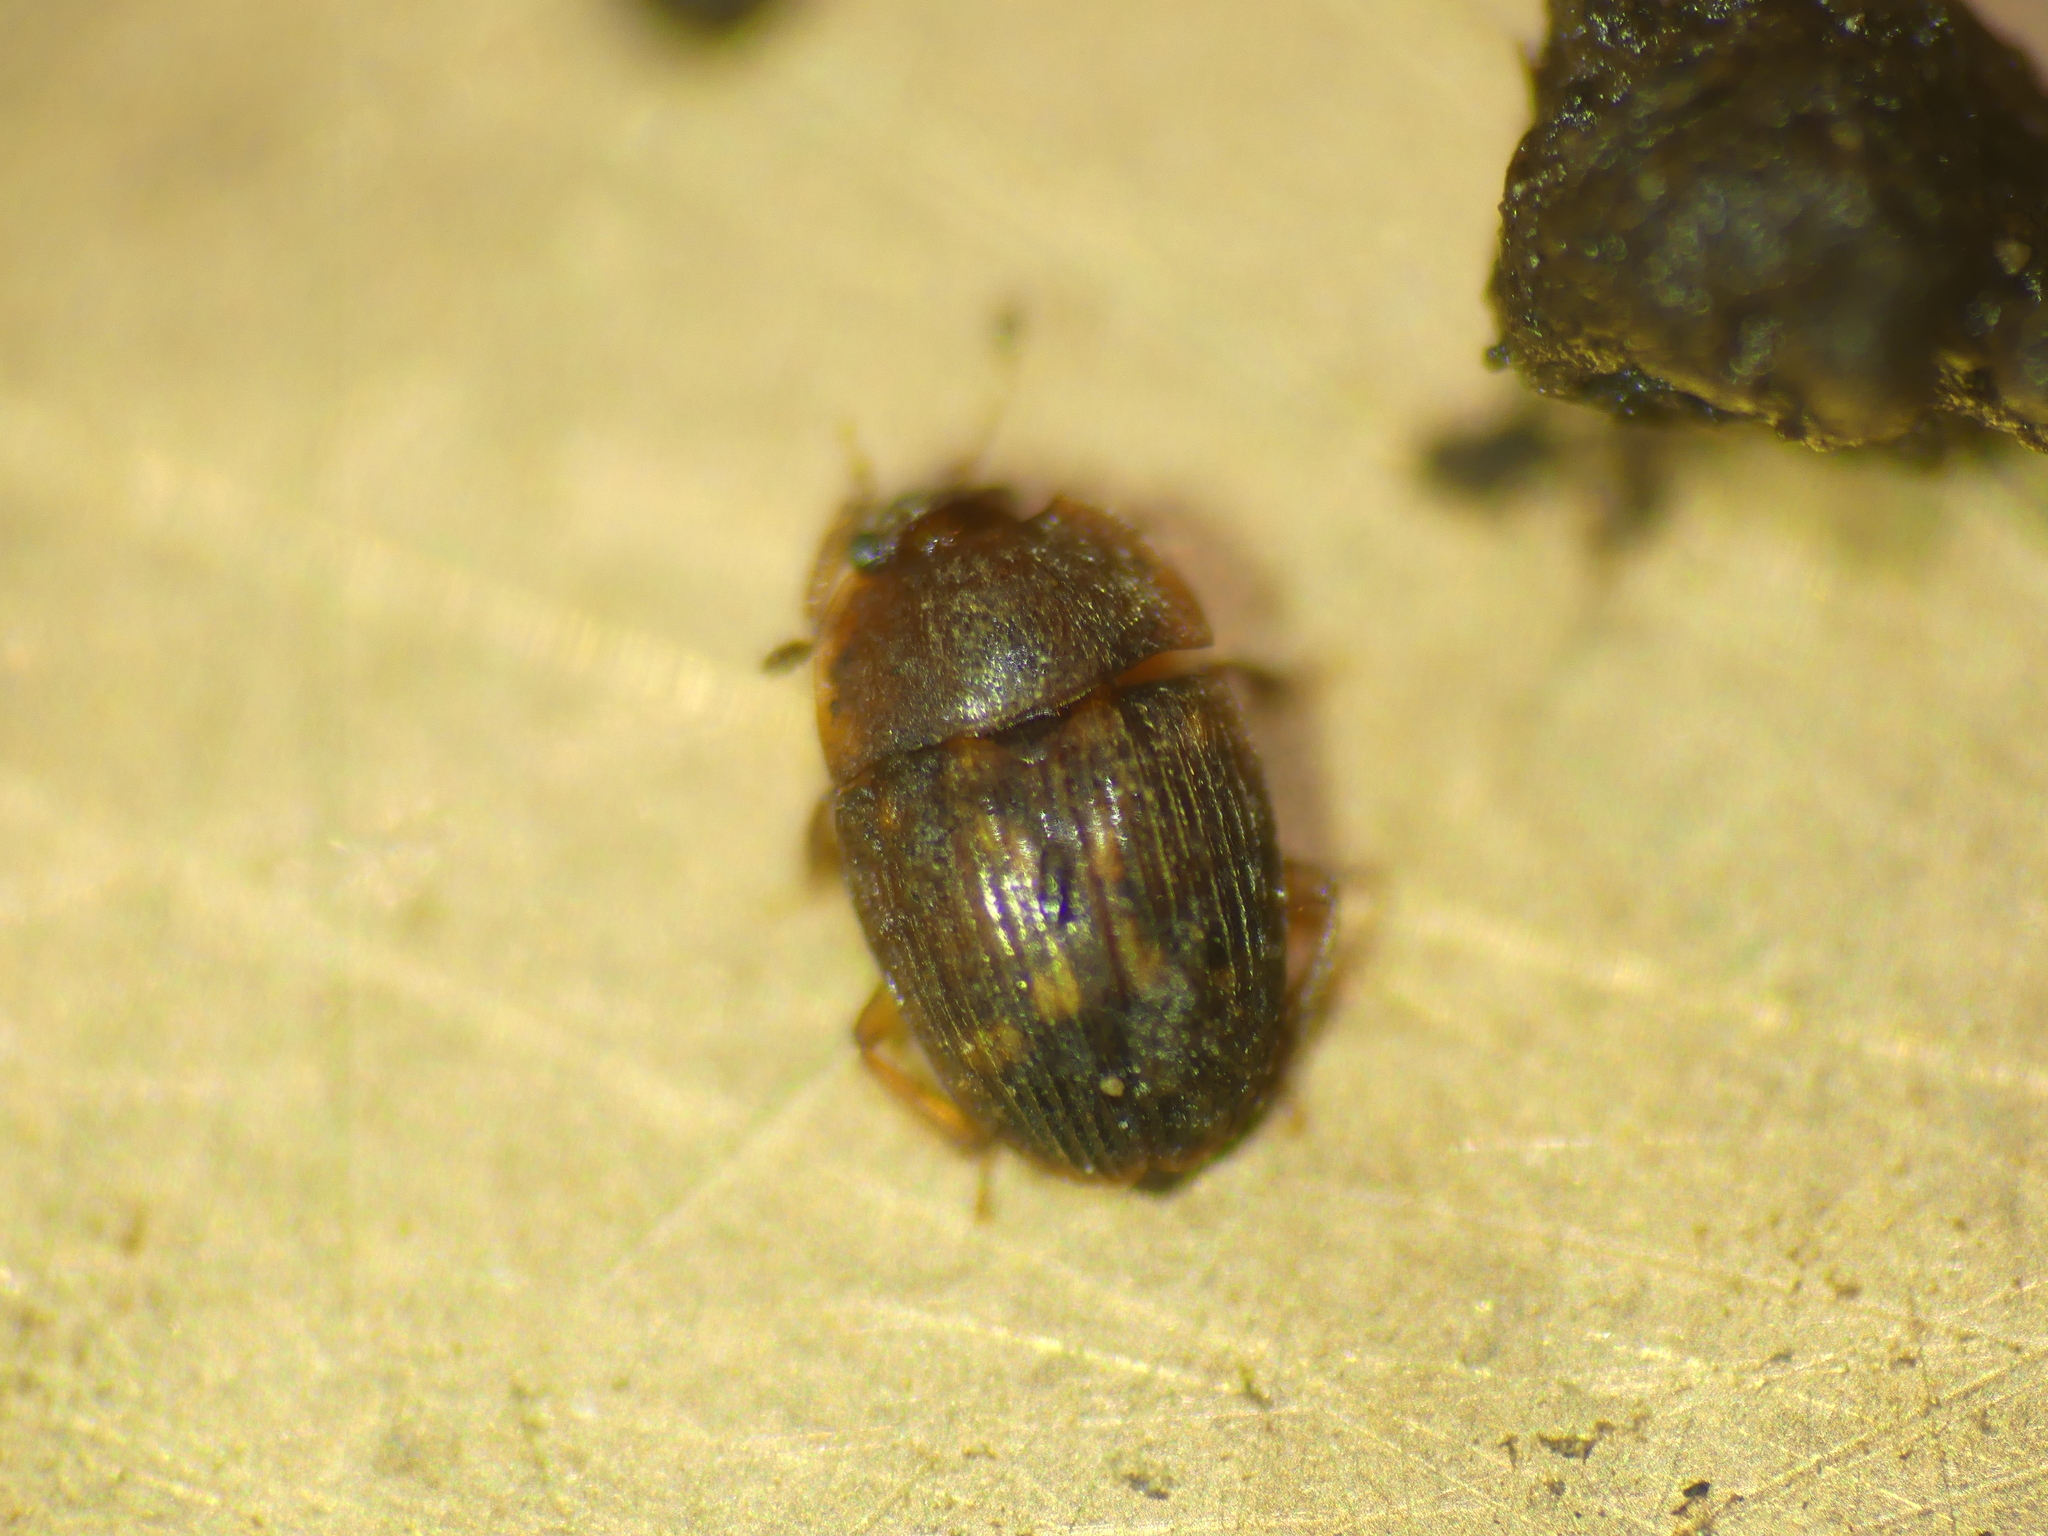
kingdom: Animalia
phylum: Arthropoda
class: Insecta
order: Coleoptera
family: Nitidulidae
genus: Stelidota
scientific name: Stelidota geminata
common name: Strawberry sap beetle
